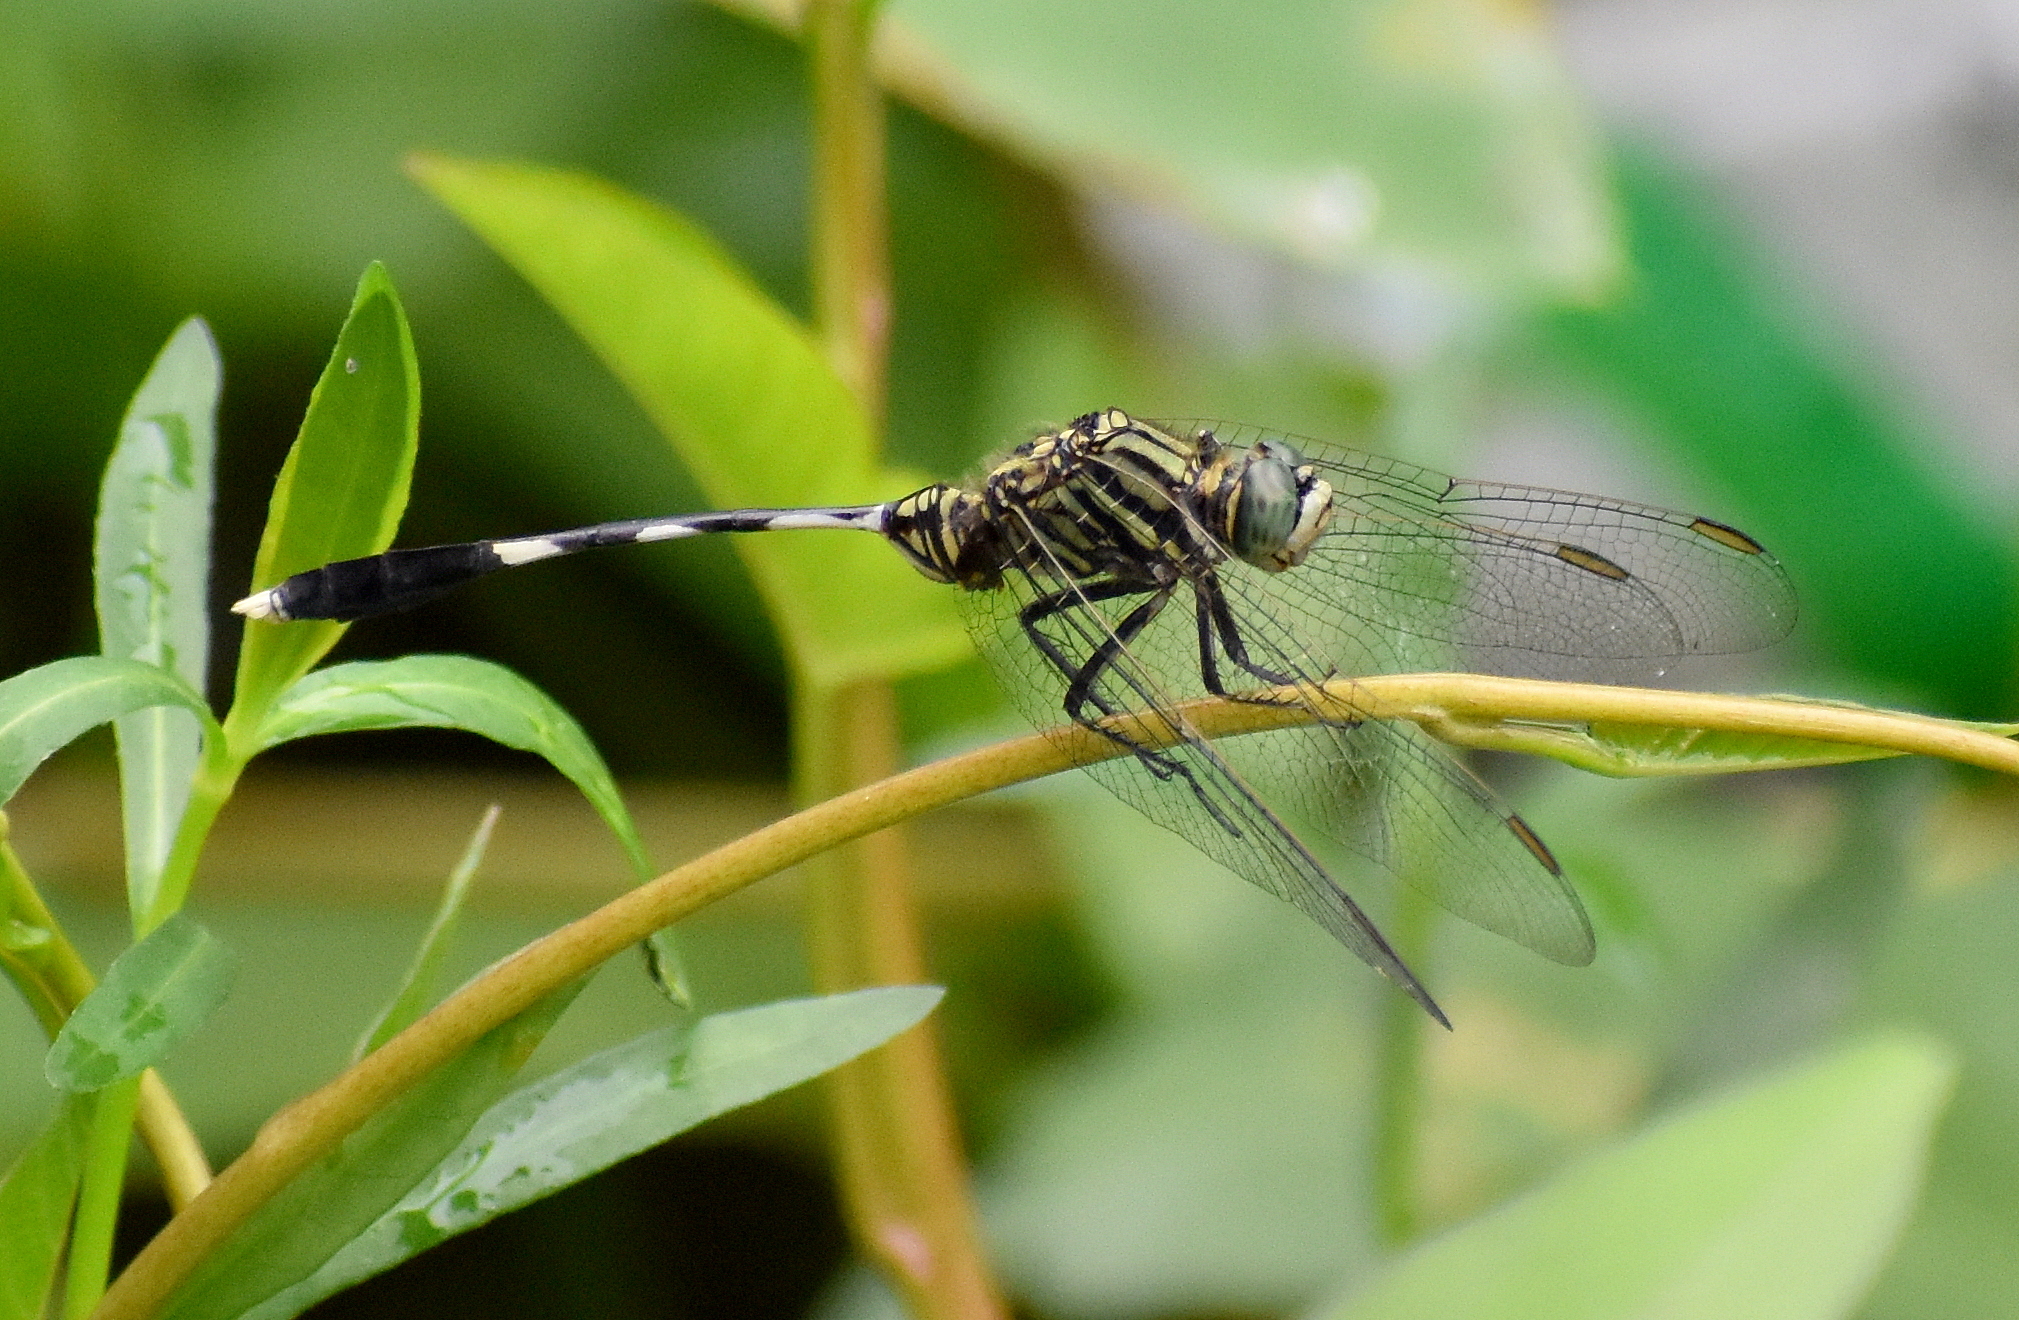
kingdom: Animalia
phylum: Arthropoda
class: Insecta
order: Odonata
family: Libellulidae
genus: Orthetrum
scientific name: Orthetrum sabina
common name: Slender skimmer
